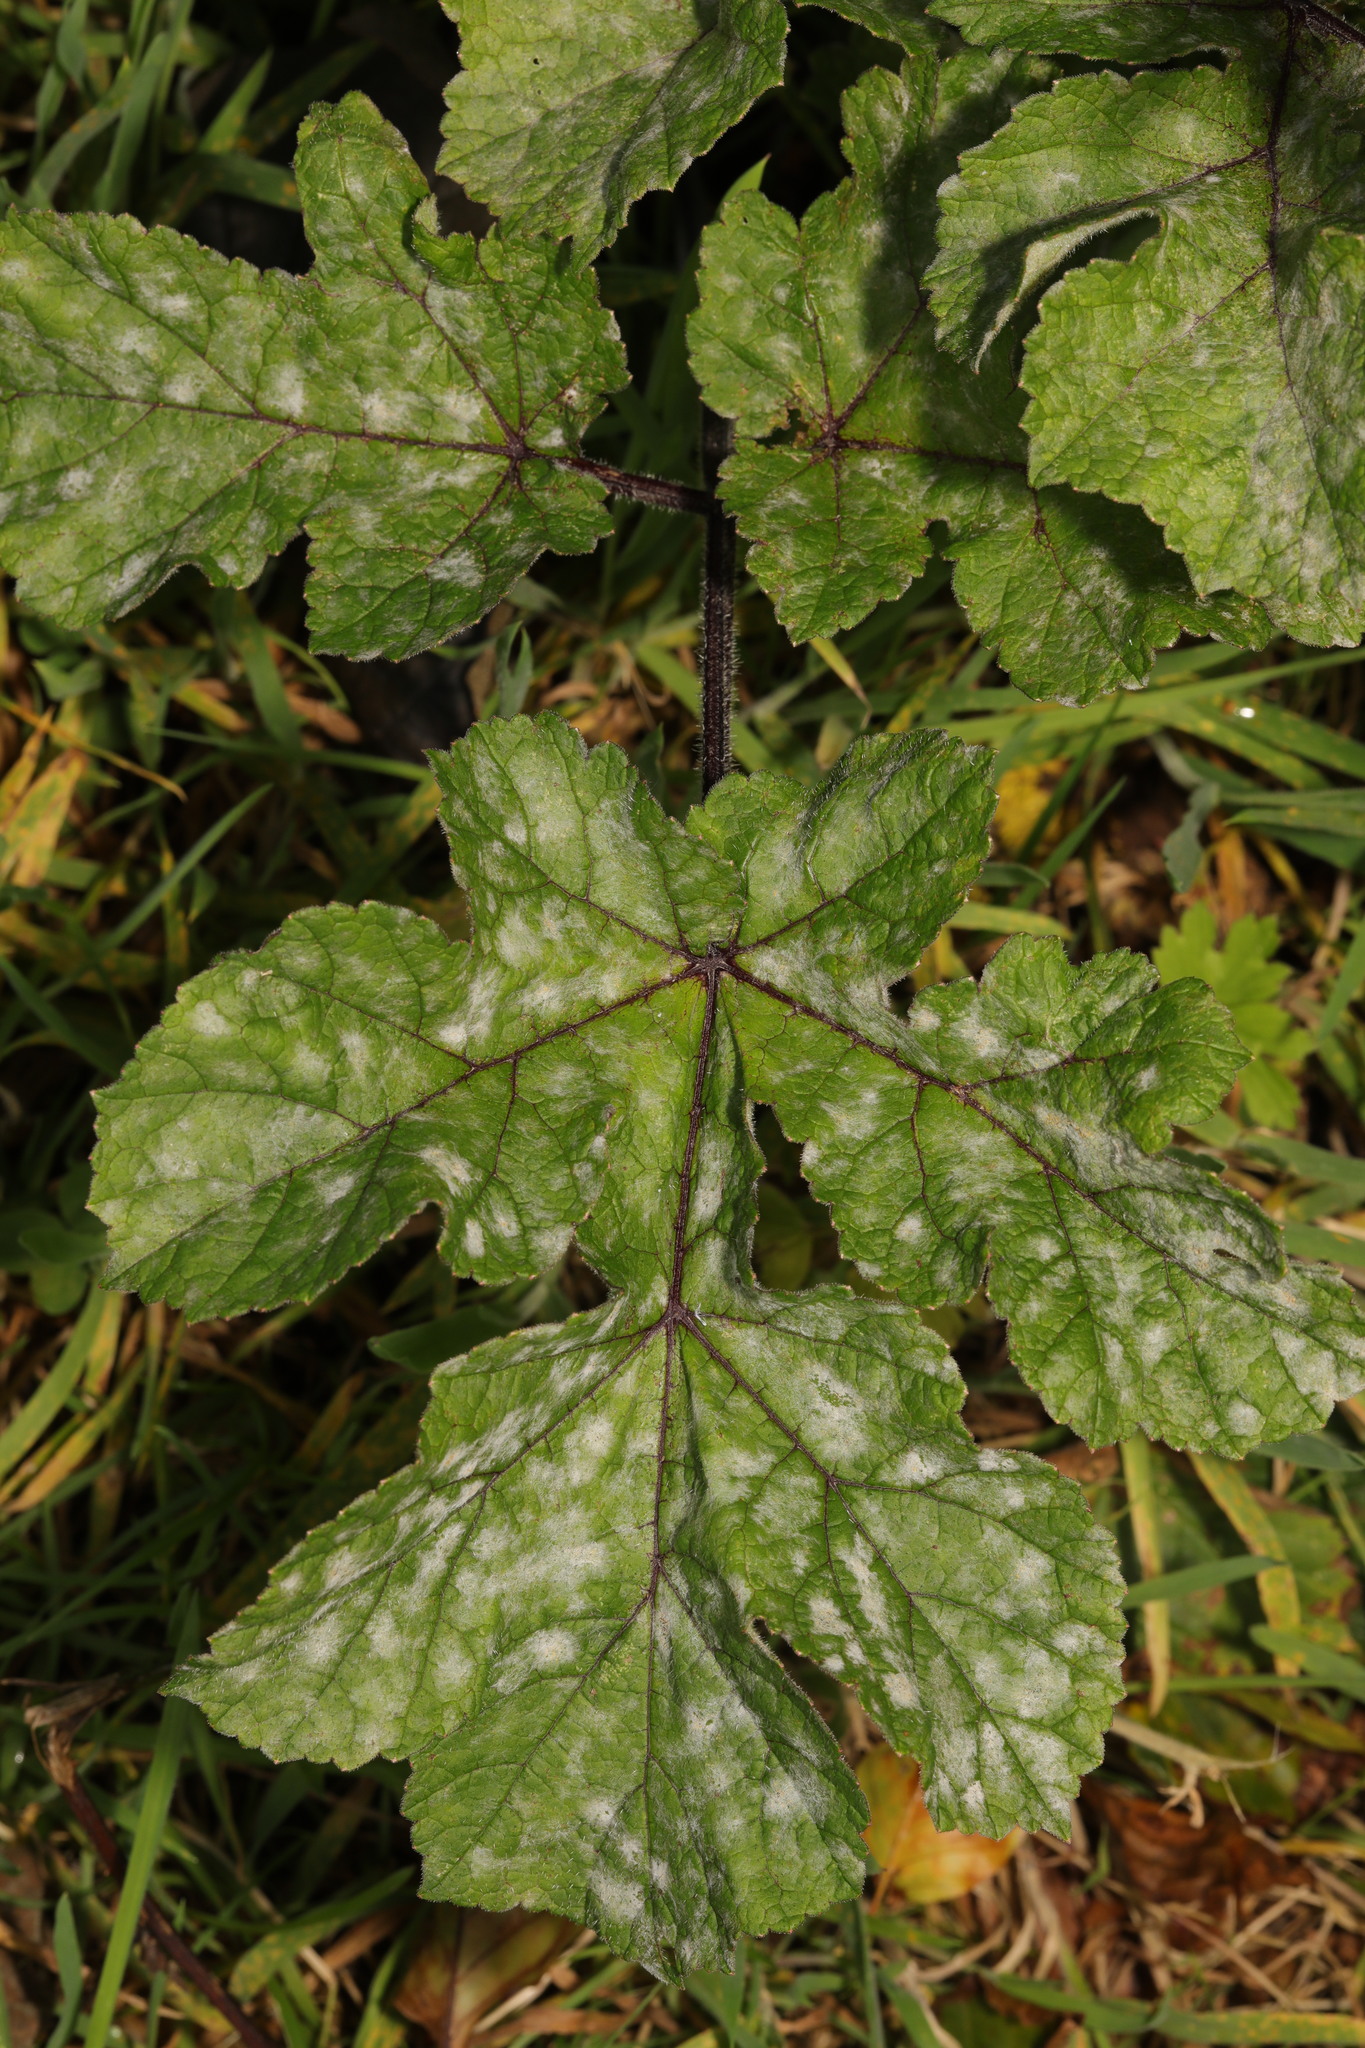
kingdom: Plantae
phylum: Tracheophyta
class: Magnoliopsida
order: Apiales
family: Apiaceae
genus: Heracleum
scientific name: Heracleum sphondylium
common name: Hogweed
